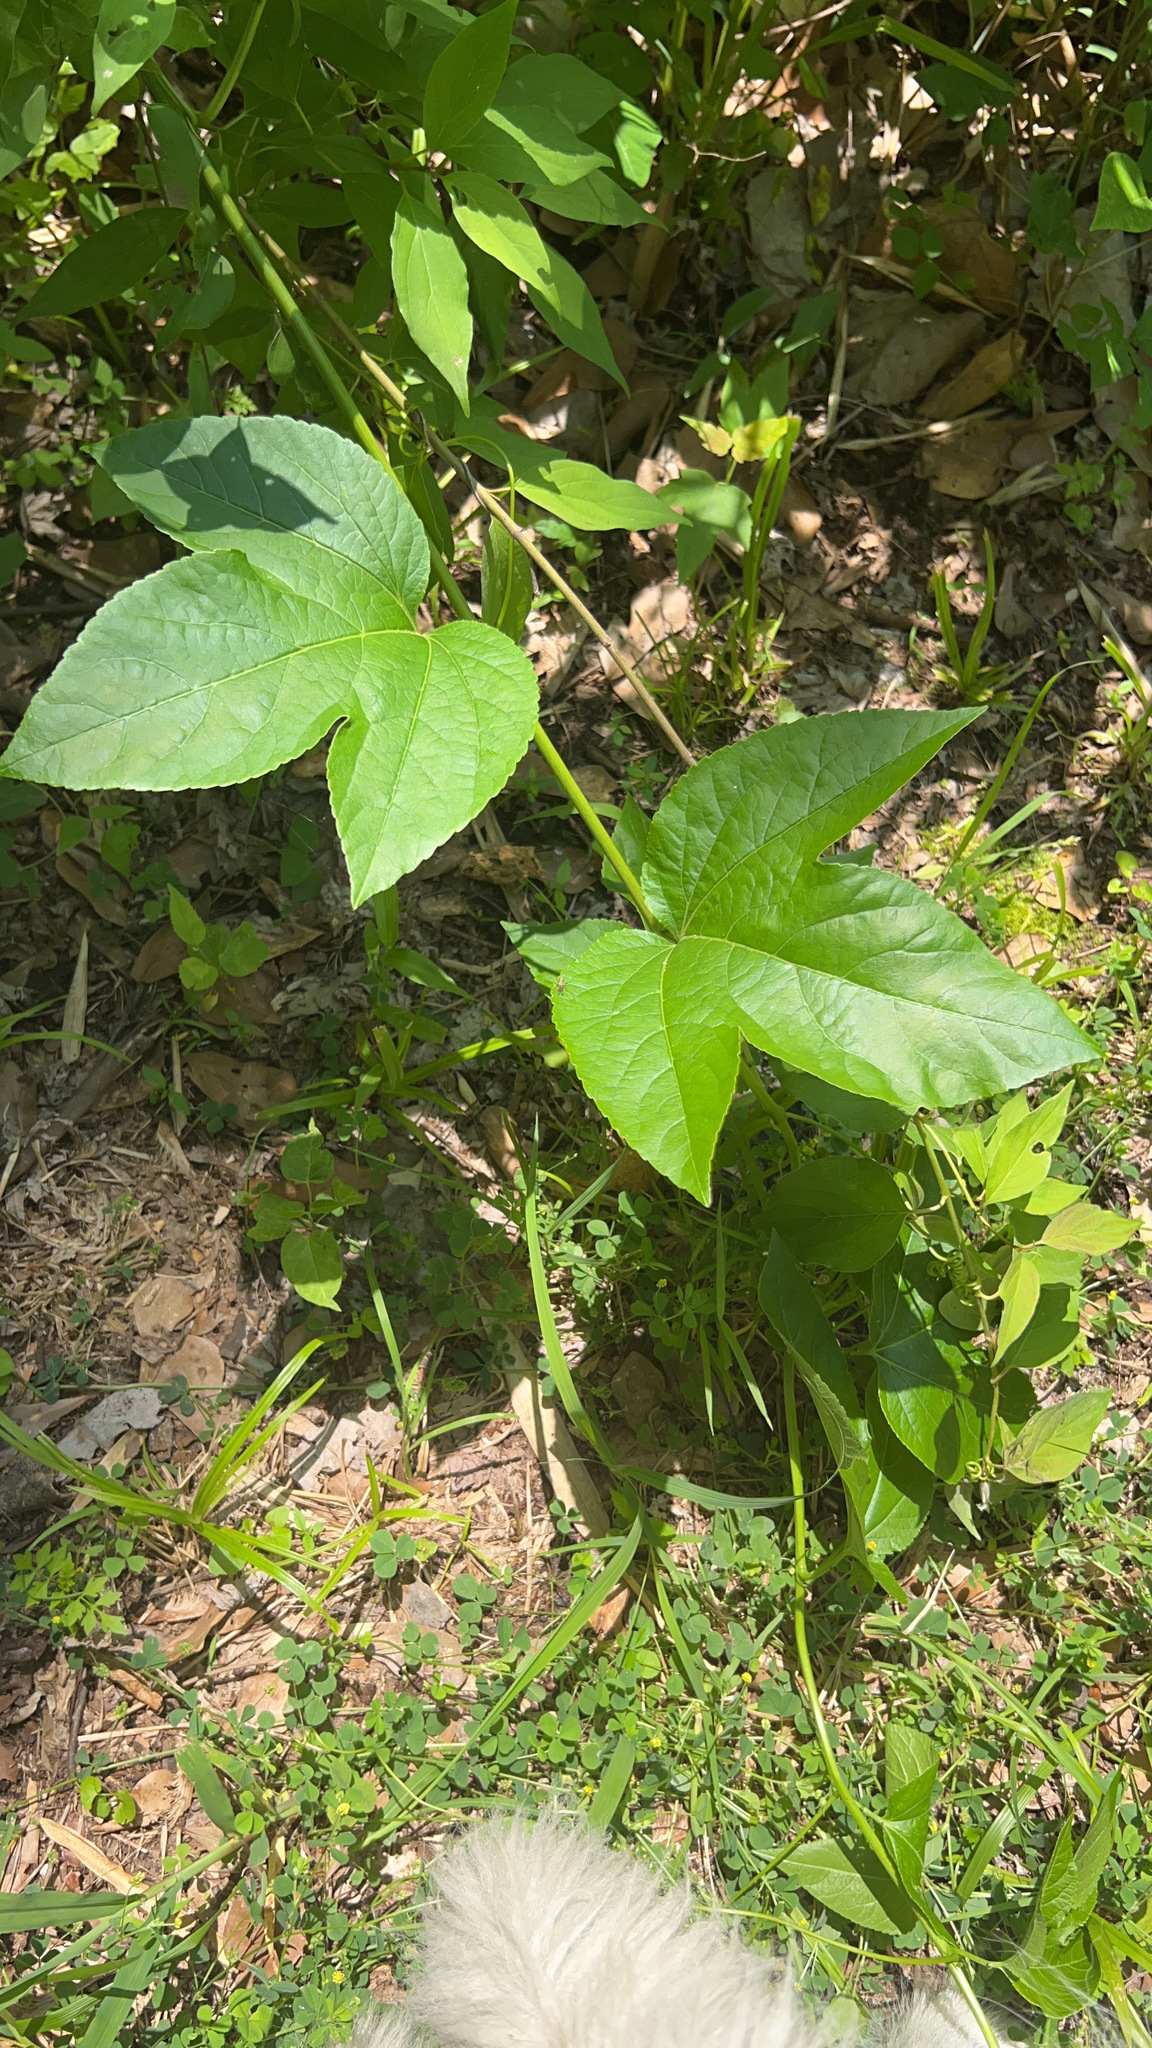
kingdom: Plantae
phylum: Tracheophyta
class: Magnoliopsida
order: Malpighiales
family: Passifloraceae
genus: Passiflora
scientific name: Passiflora incarnata
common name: Apricot-vine
